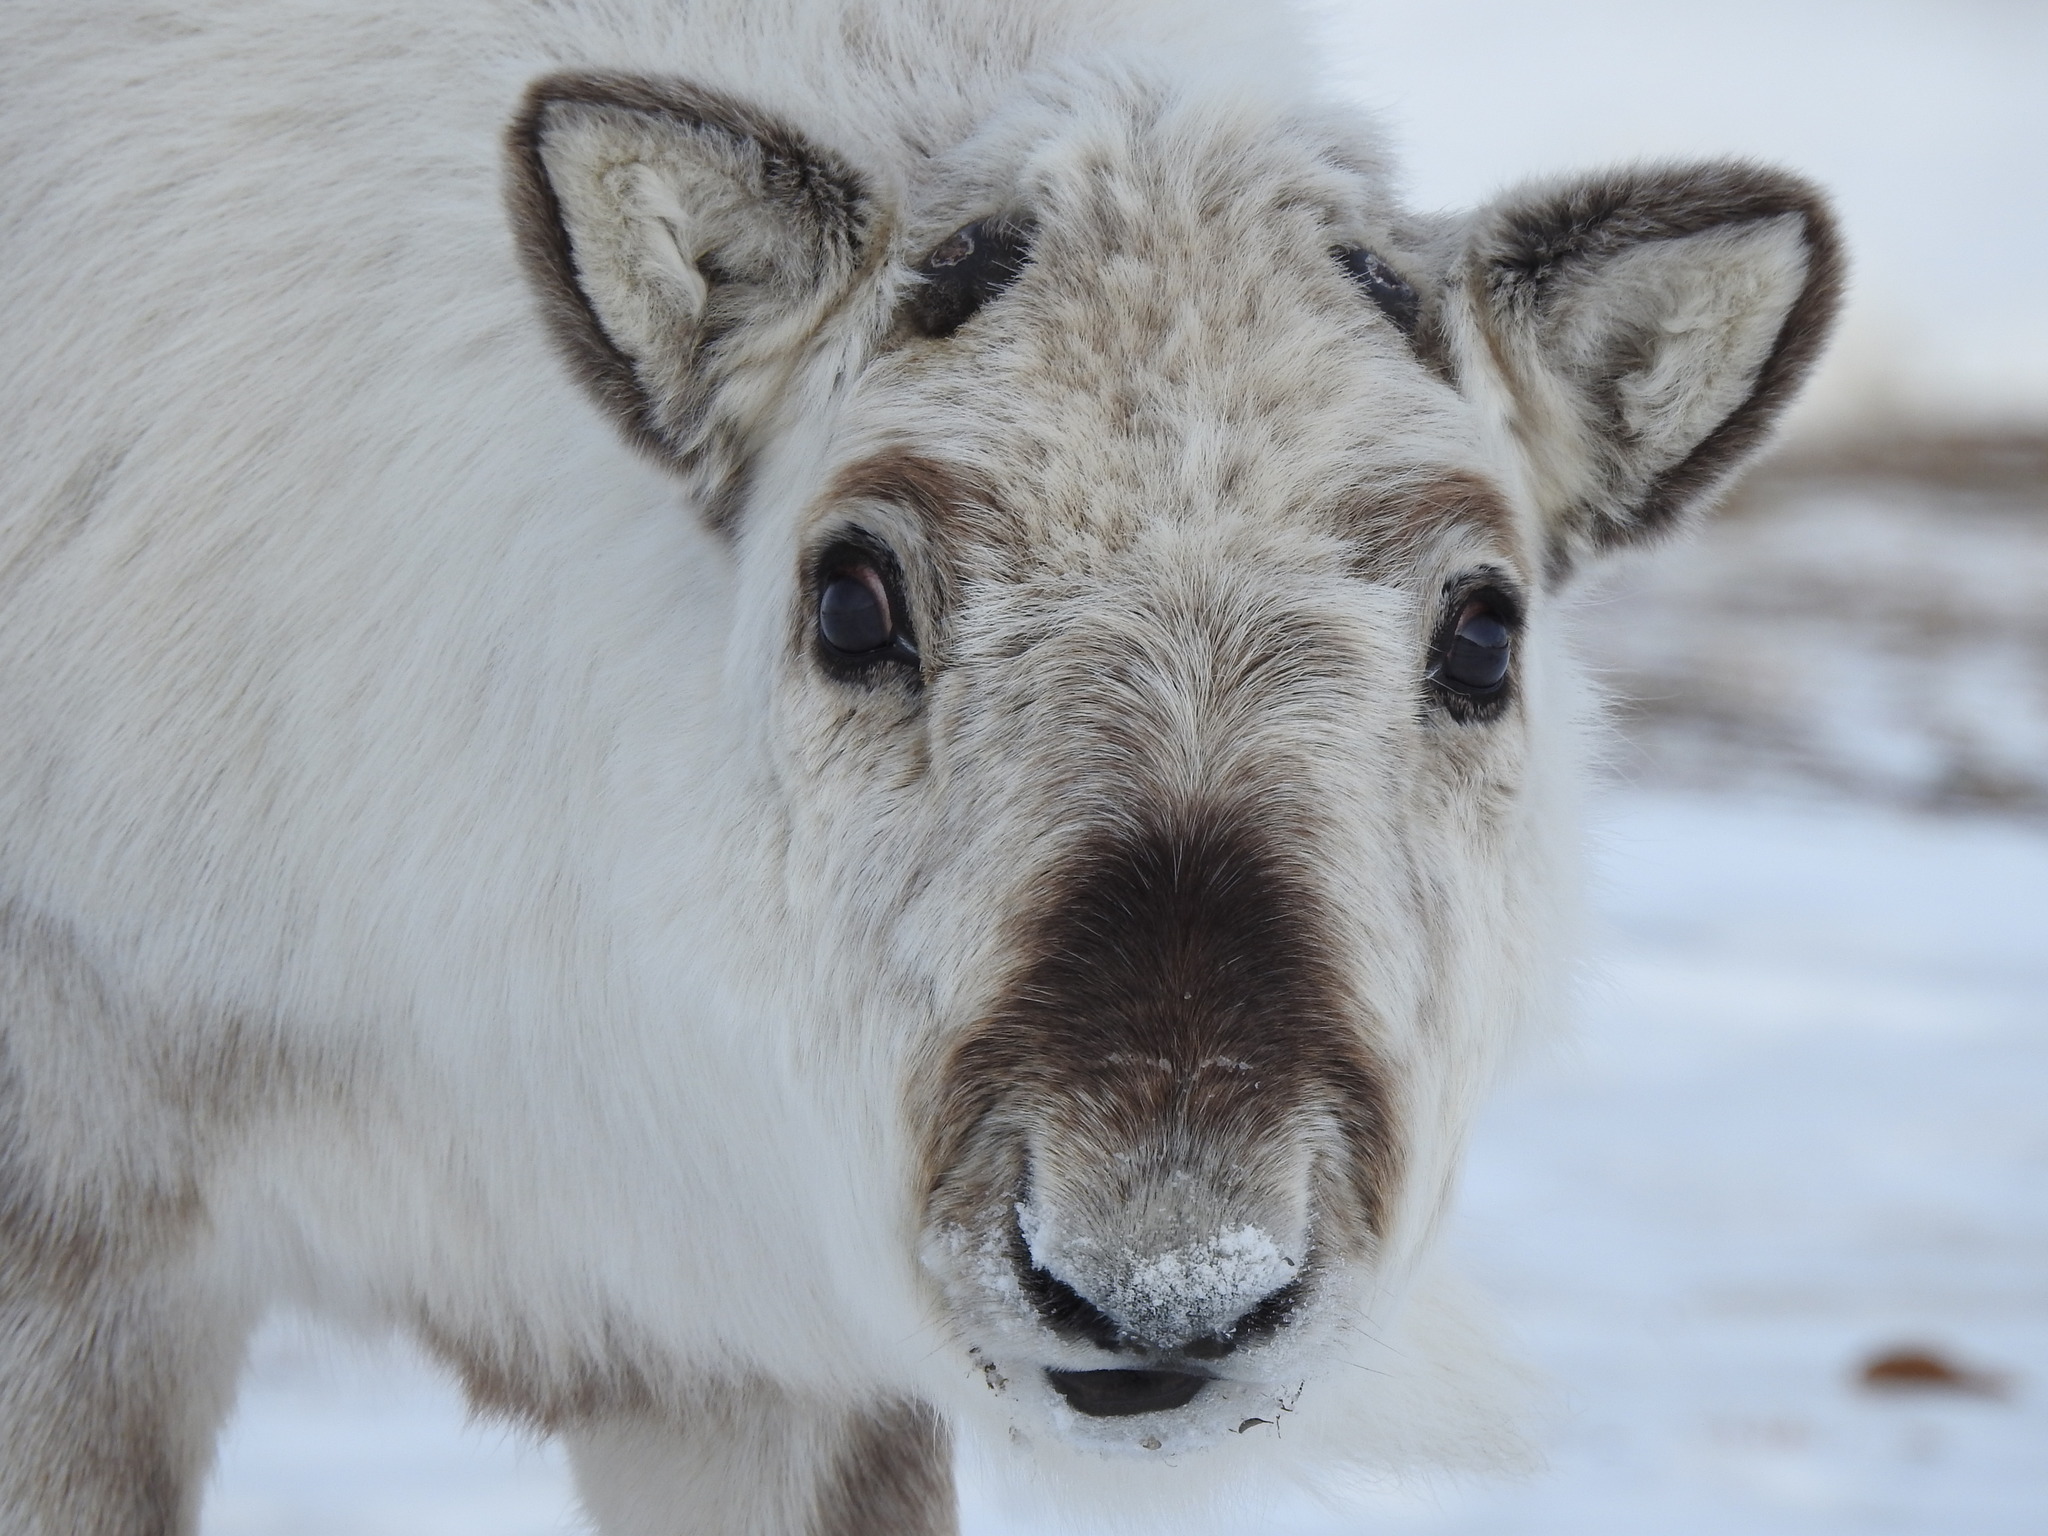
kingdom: Animalia
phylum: Chordata
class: Mammalia
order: Artiodactyla
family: Cervidae
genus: Rangifer
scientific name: Rangifer tarandus
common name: Reindeer
